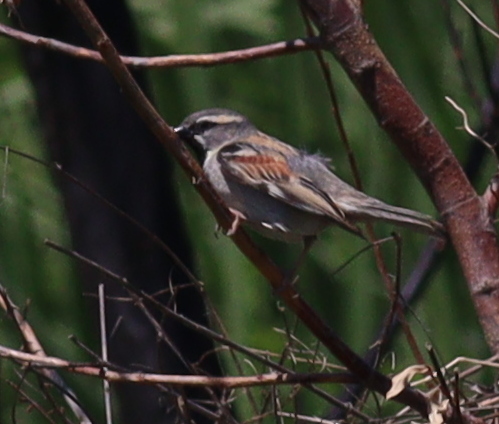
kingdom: Animalia
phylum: Chordata
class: Aves
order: Passeriformes
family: Passeridae
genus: Passer
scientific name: Passer moabiticus
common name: Dead sea sparrow
